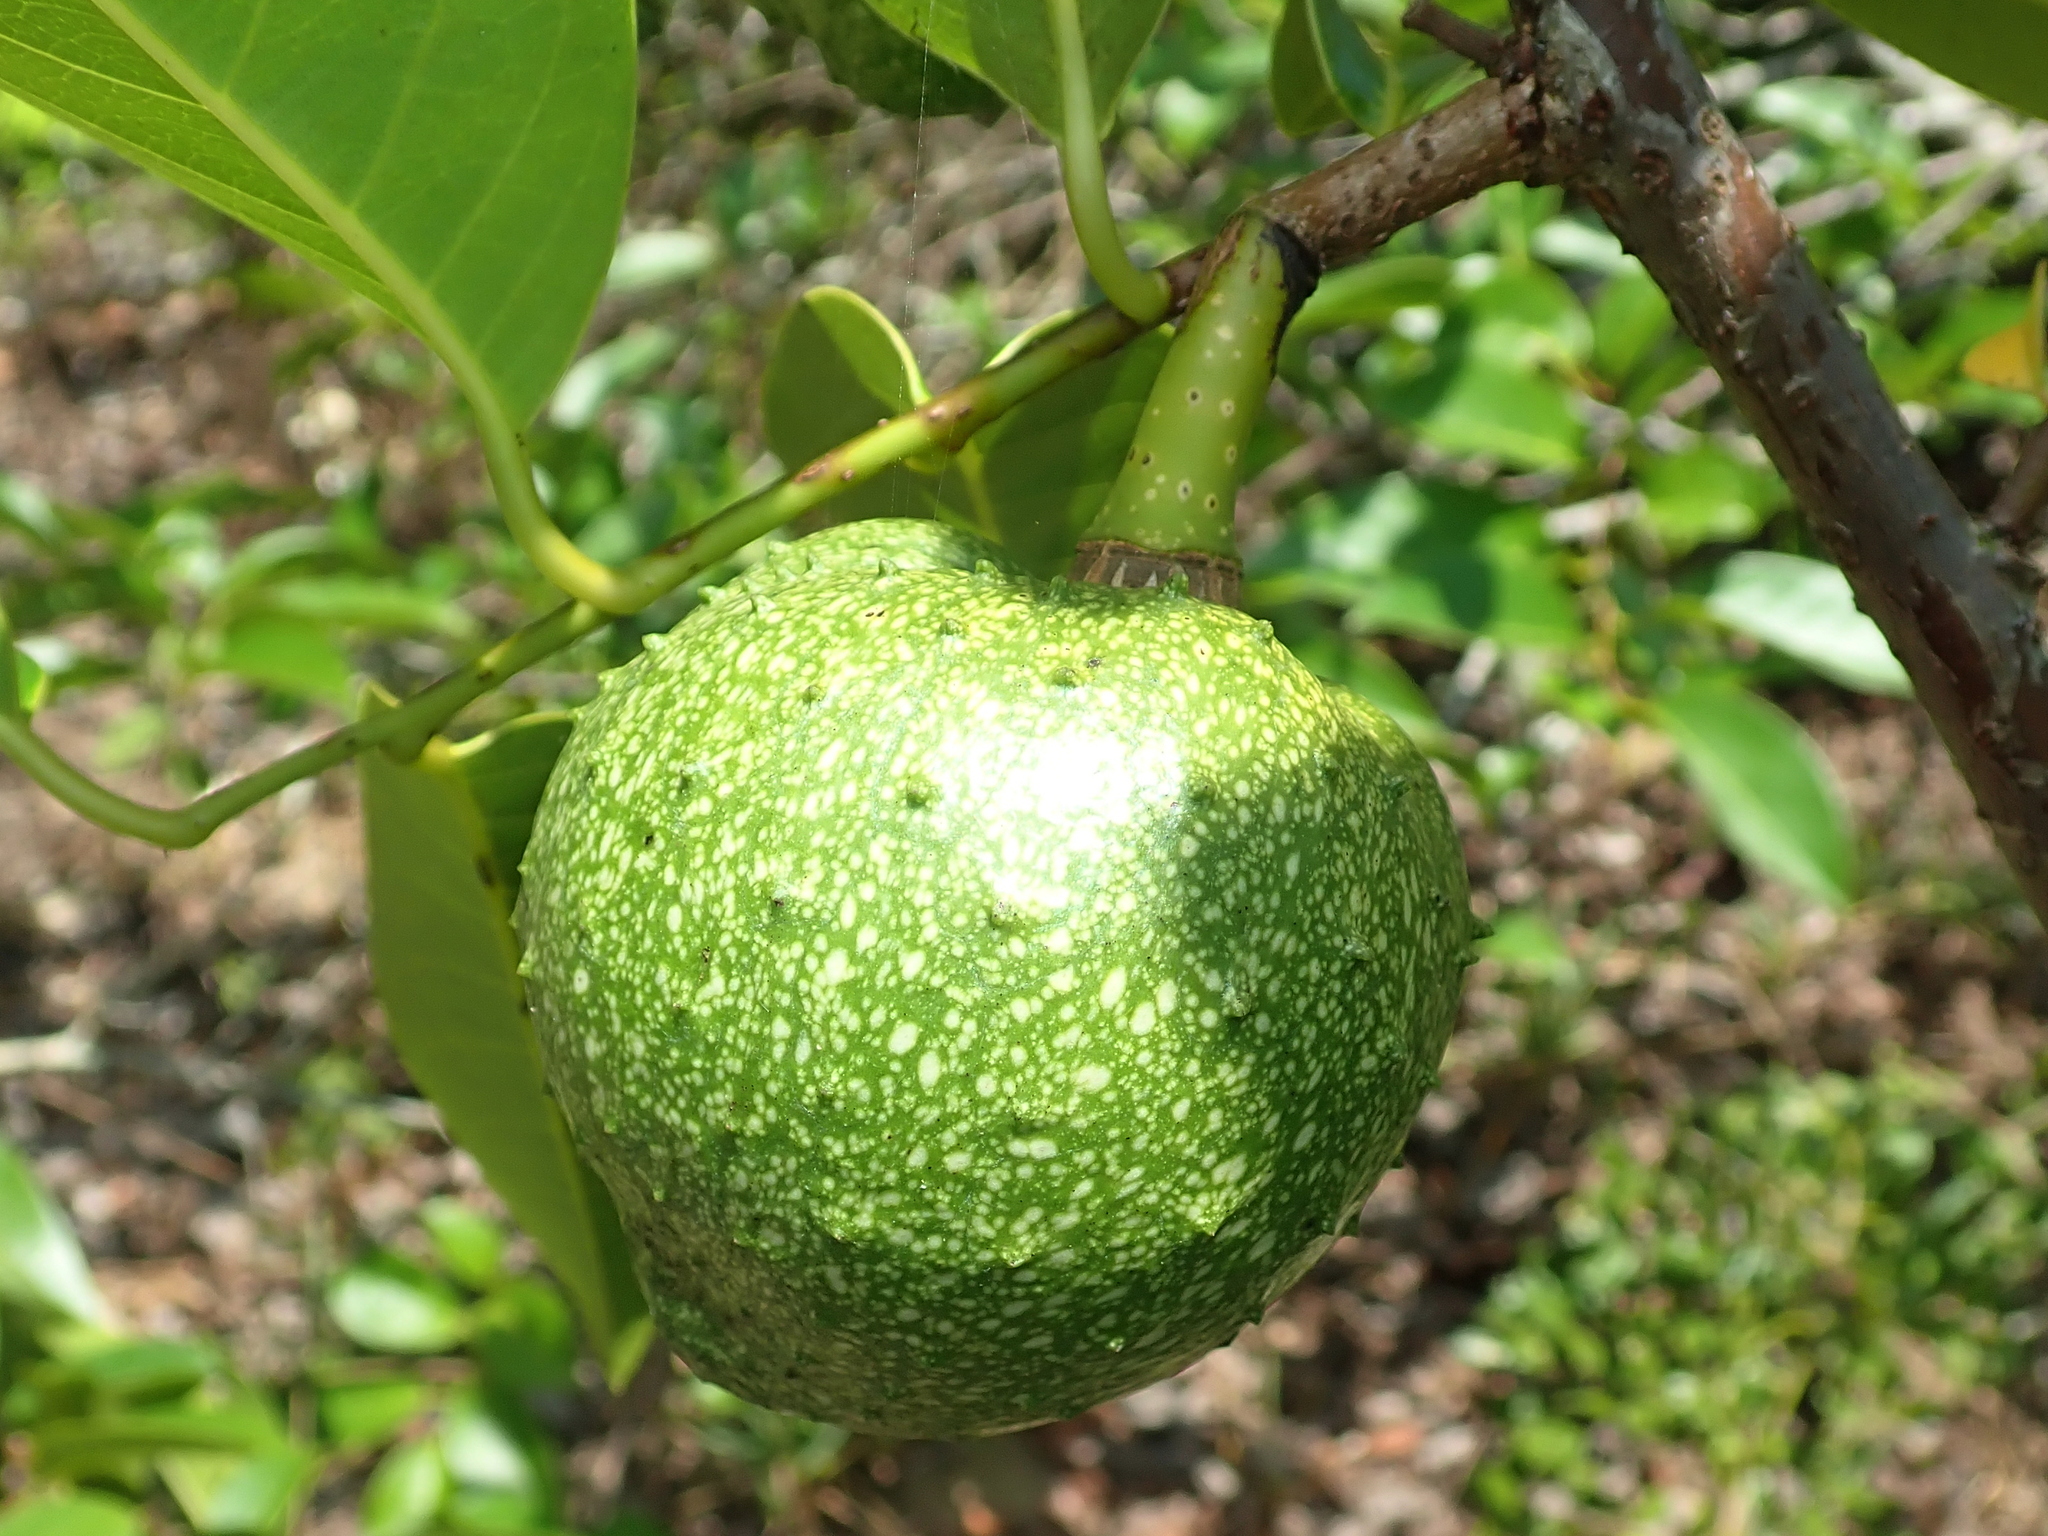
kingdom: Plantae
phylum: Tracheophyta
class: Magnoliopsida
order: Magnoliales
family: Annonaceae
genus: Annona
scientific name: Annona glabra
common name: Monkey apple
